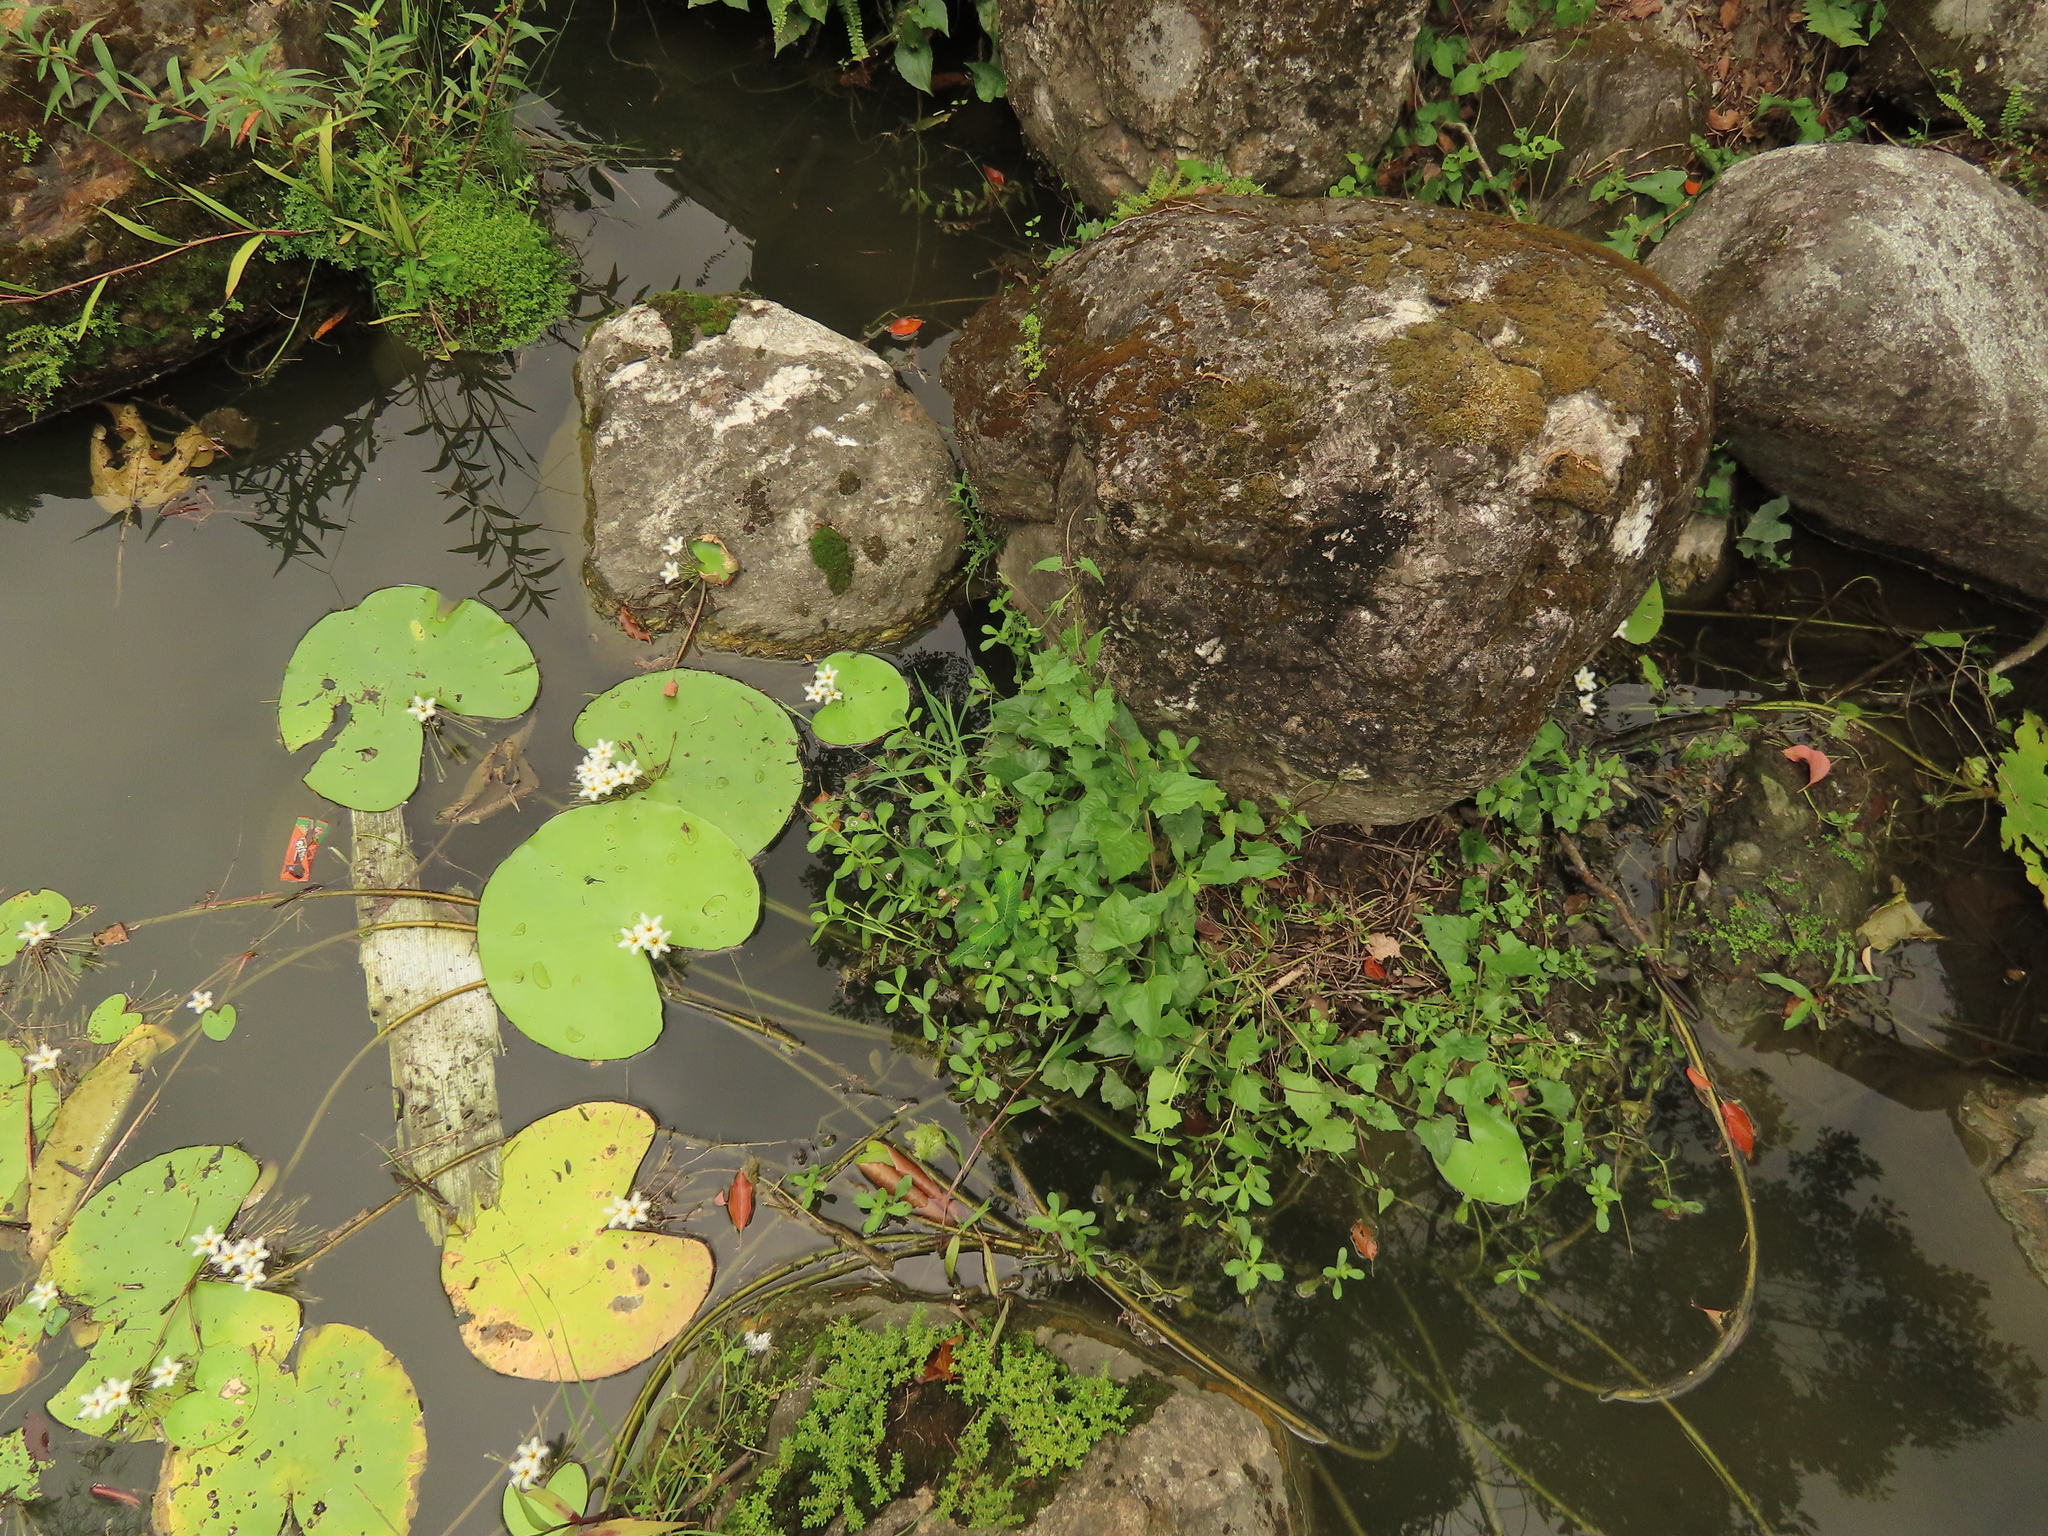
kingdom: Plantae
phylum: Tracheophyta
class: Magnoliopsida
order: Lamiales
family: Verbenaceae
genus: Phyla
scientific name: Phyla nodiflora
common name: Frogfruit
